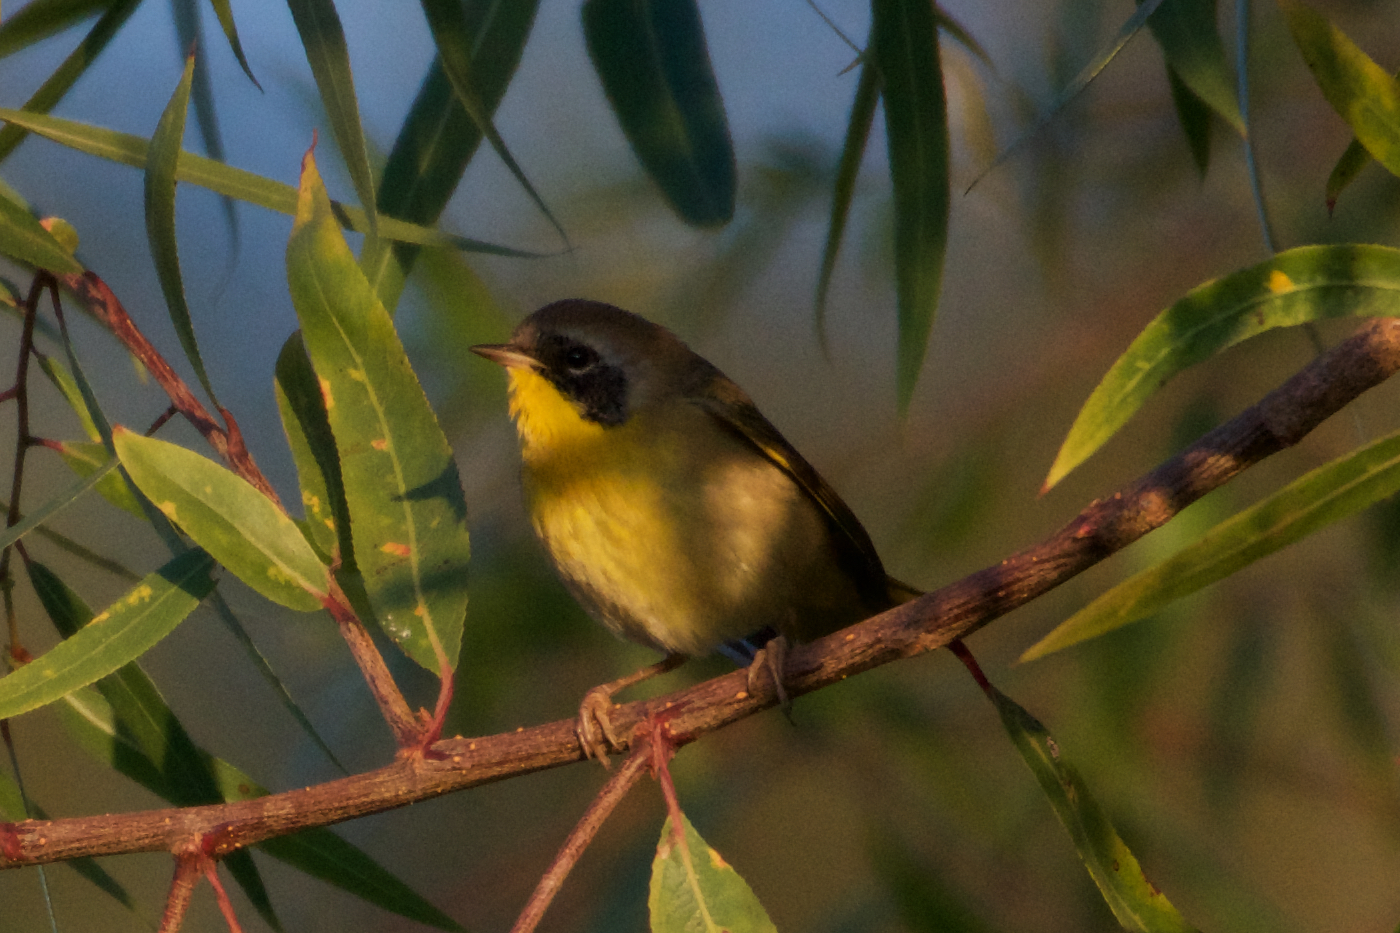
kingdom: Animalia
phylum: Chordata
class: Aves
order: Passeriformes
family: Parulidae
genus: Geothlypis
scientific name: Geothlypis trichas
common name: Common yellowthroat
